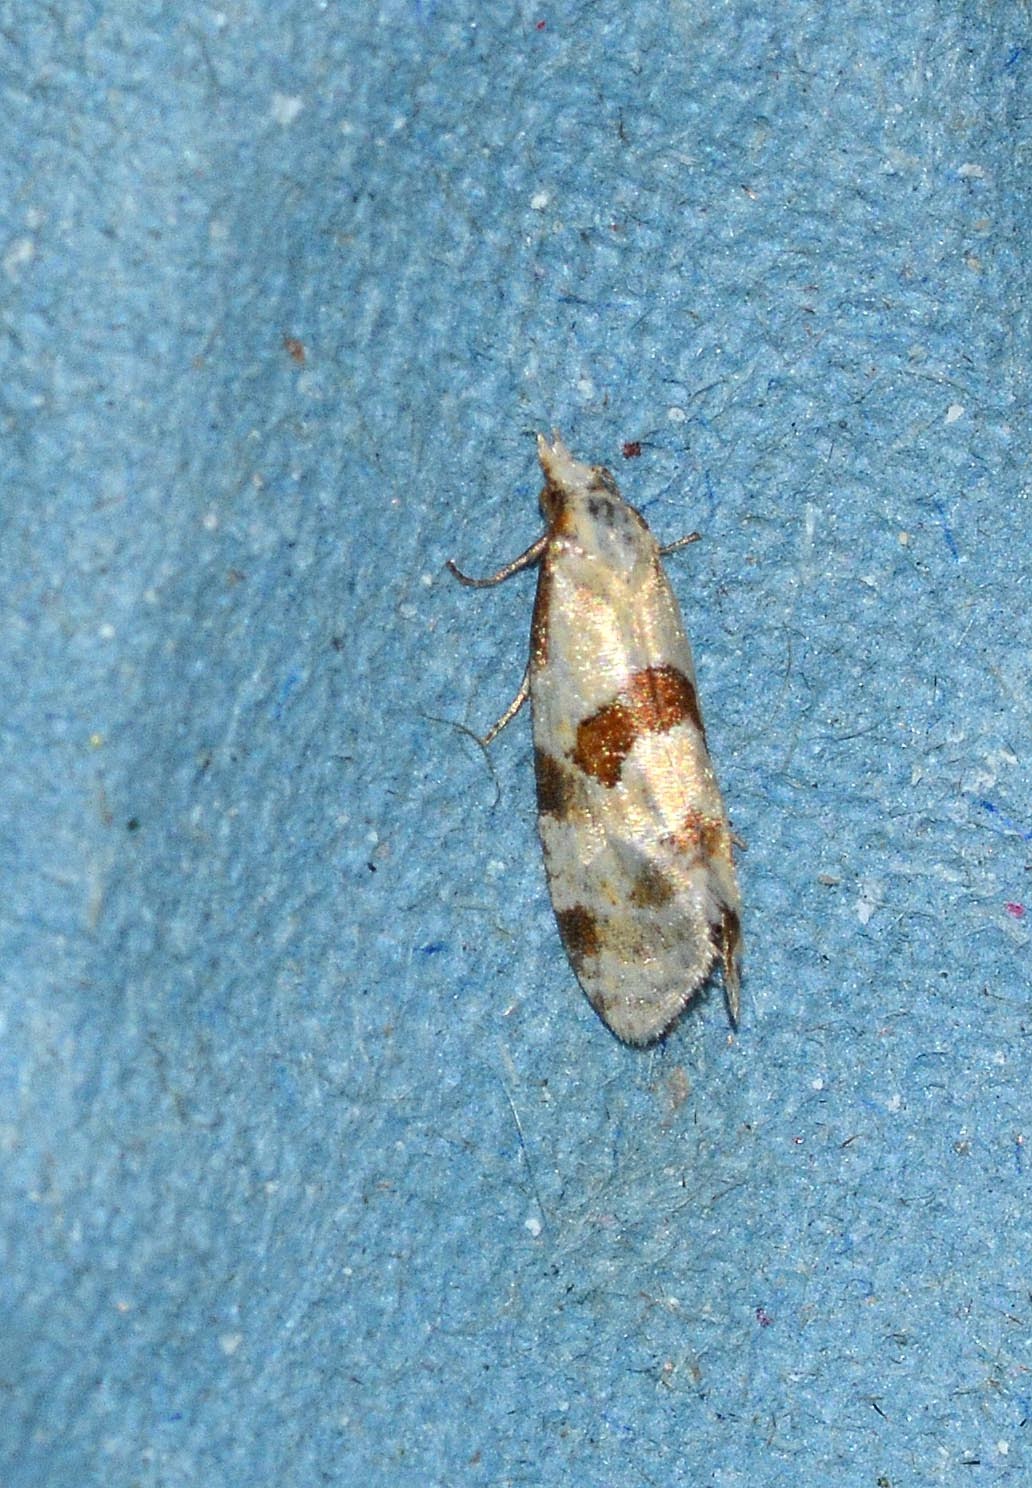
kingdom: Animalia
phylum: Arthropoda
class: Insecta
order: Lepidoptera
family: Tortricidae
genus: Aethes
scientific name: Aethes cnicana
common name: Thistle conch
